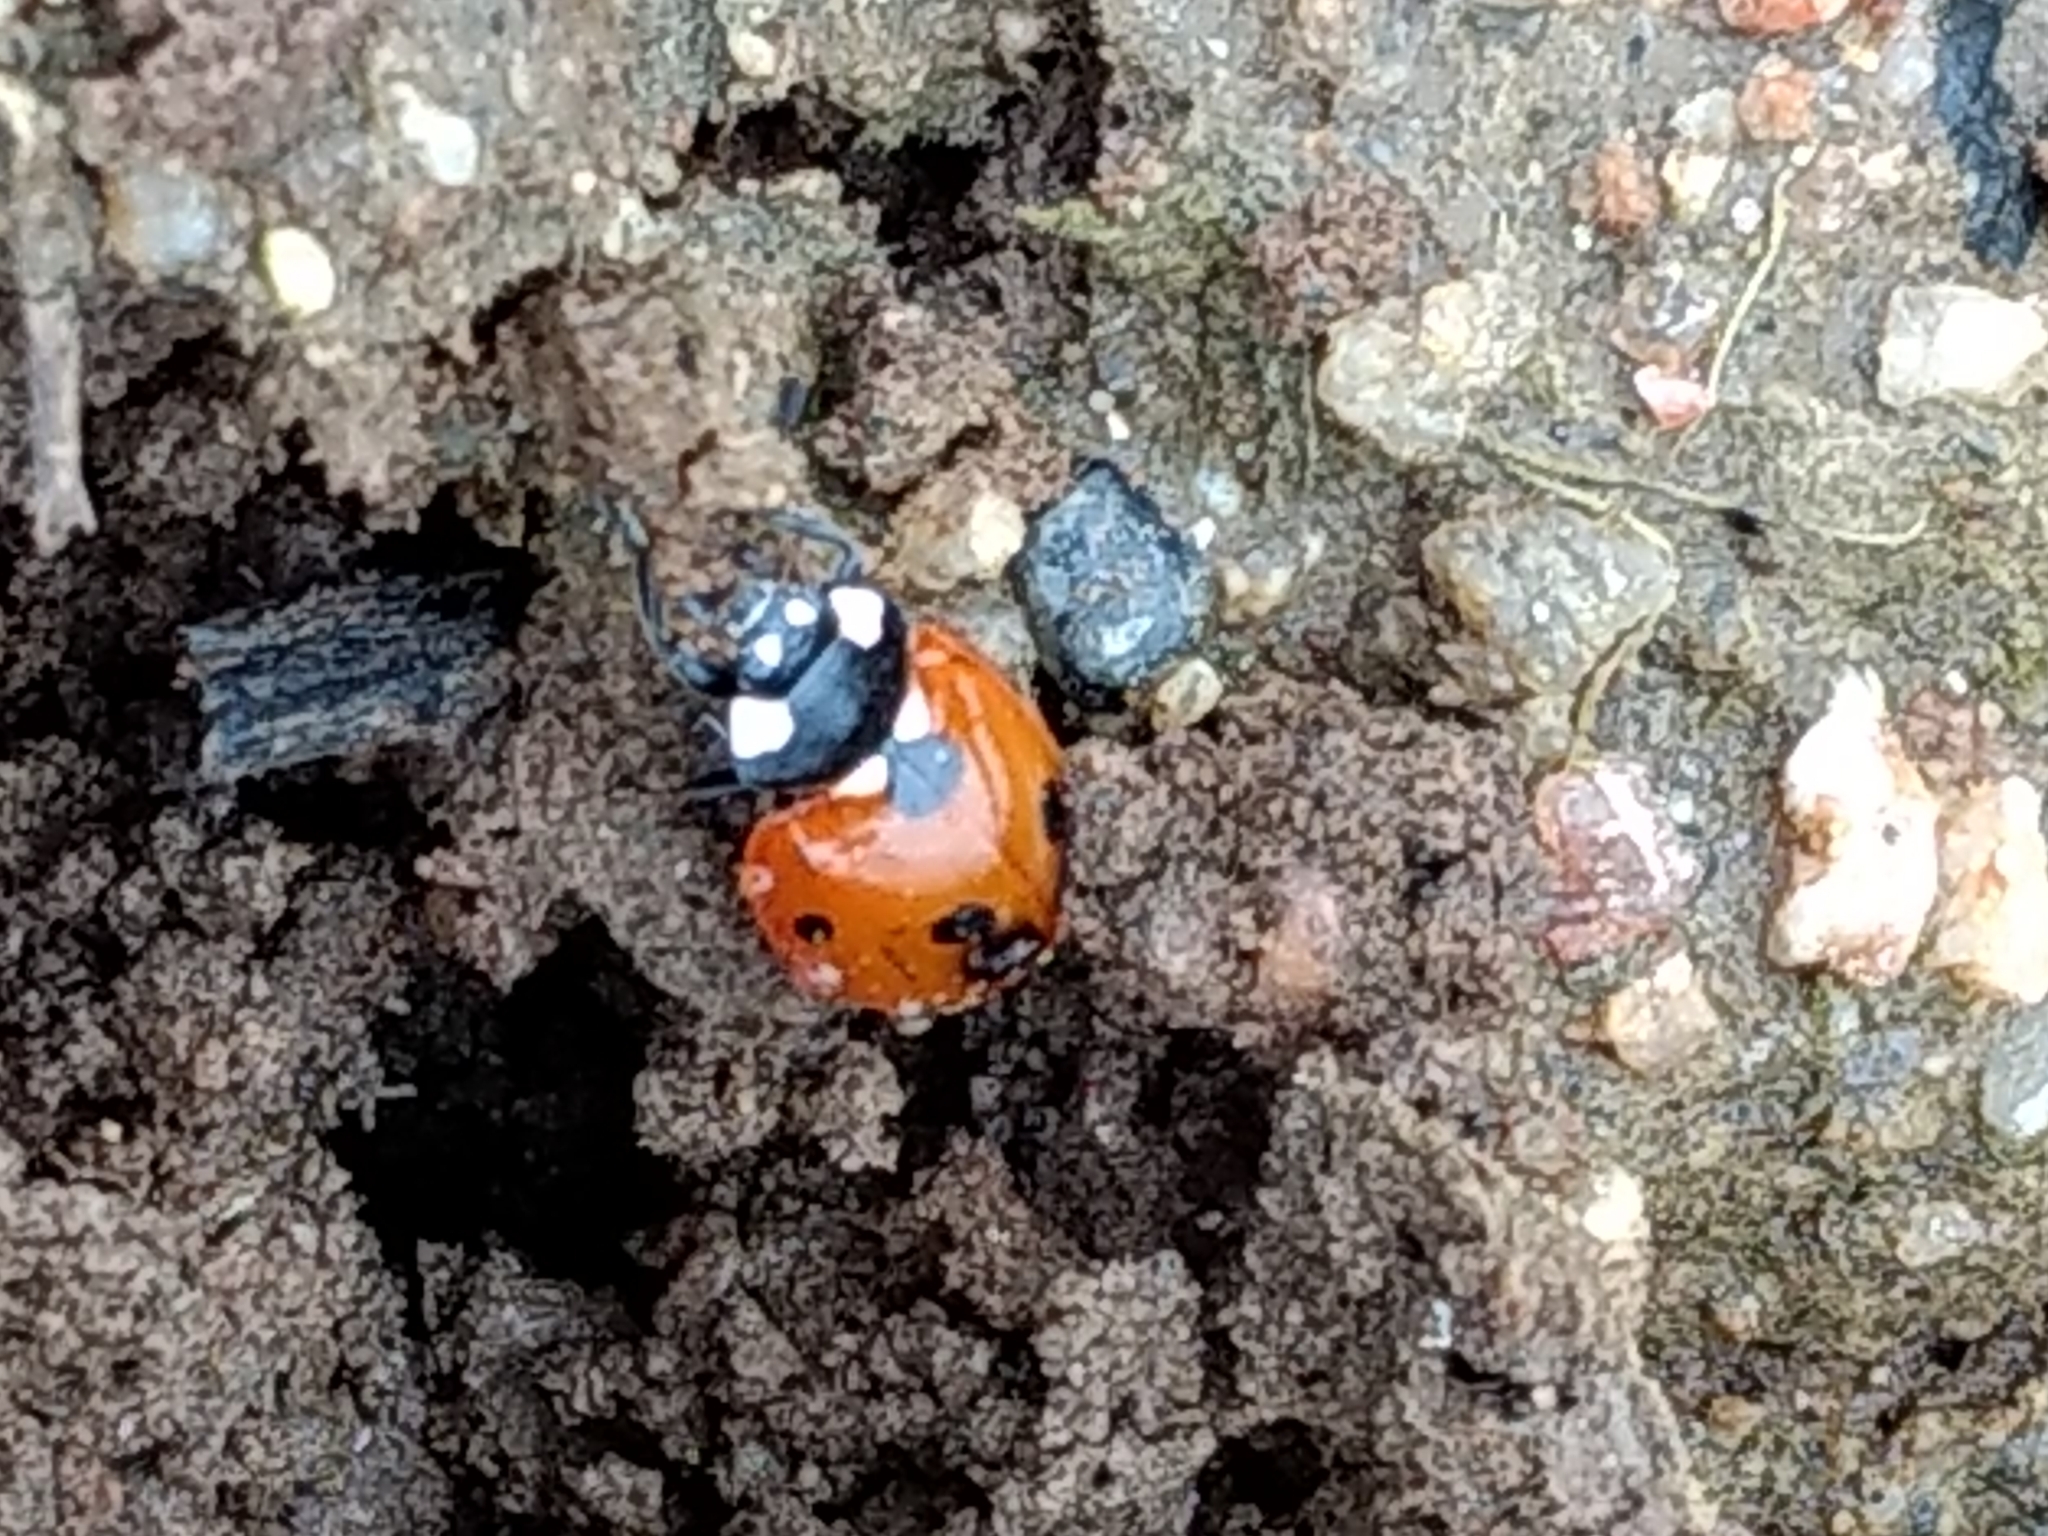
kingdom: Animalia
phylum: Arthropoda
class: Insecta
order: Coleoptera
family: Coccinellidae
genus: Coccinella
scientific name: Coccinella septempunctata
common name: Sevenspotted lady beetle
